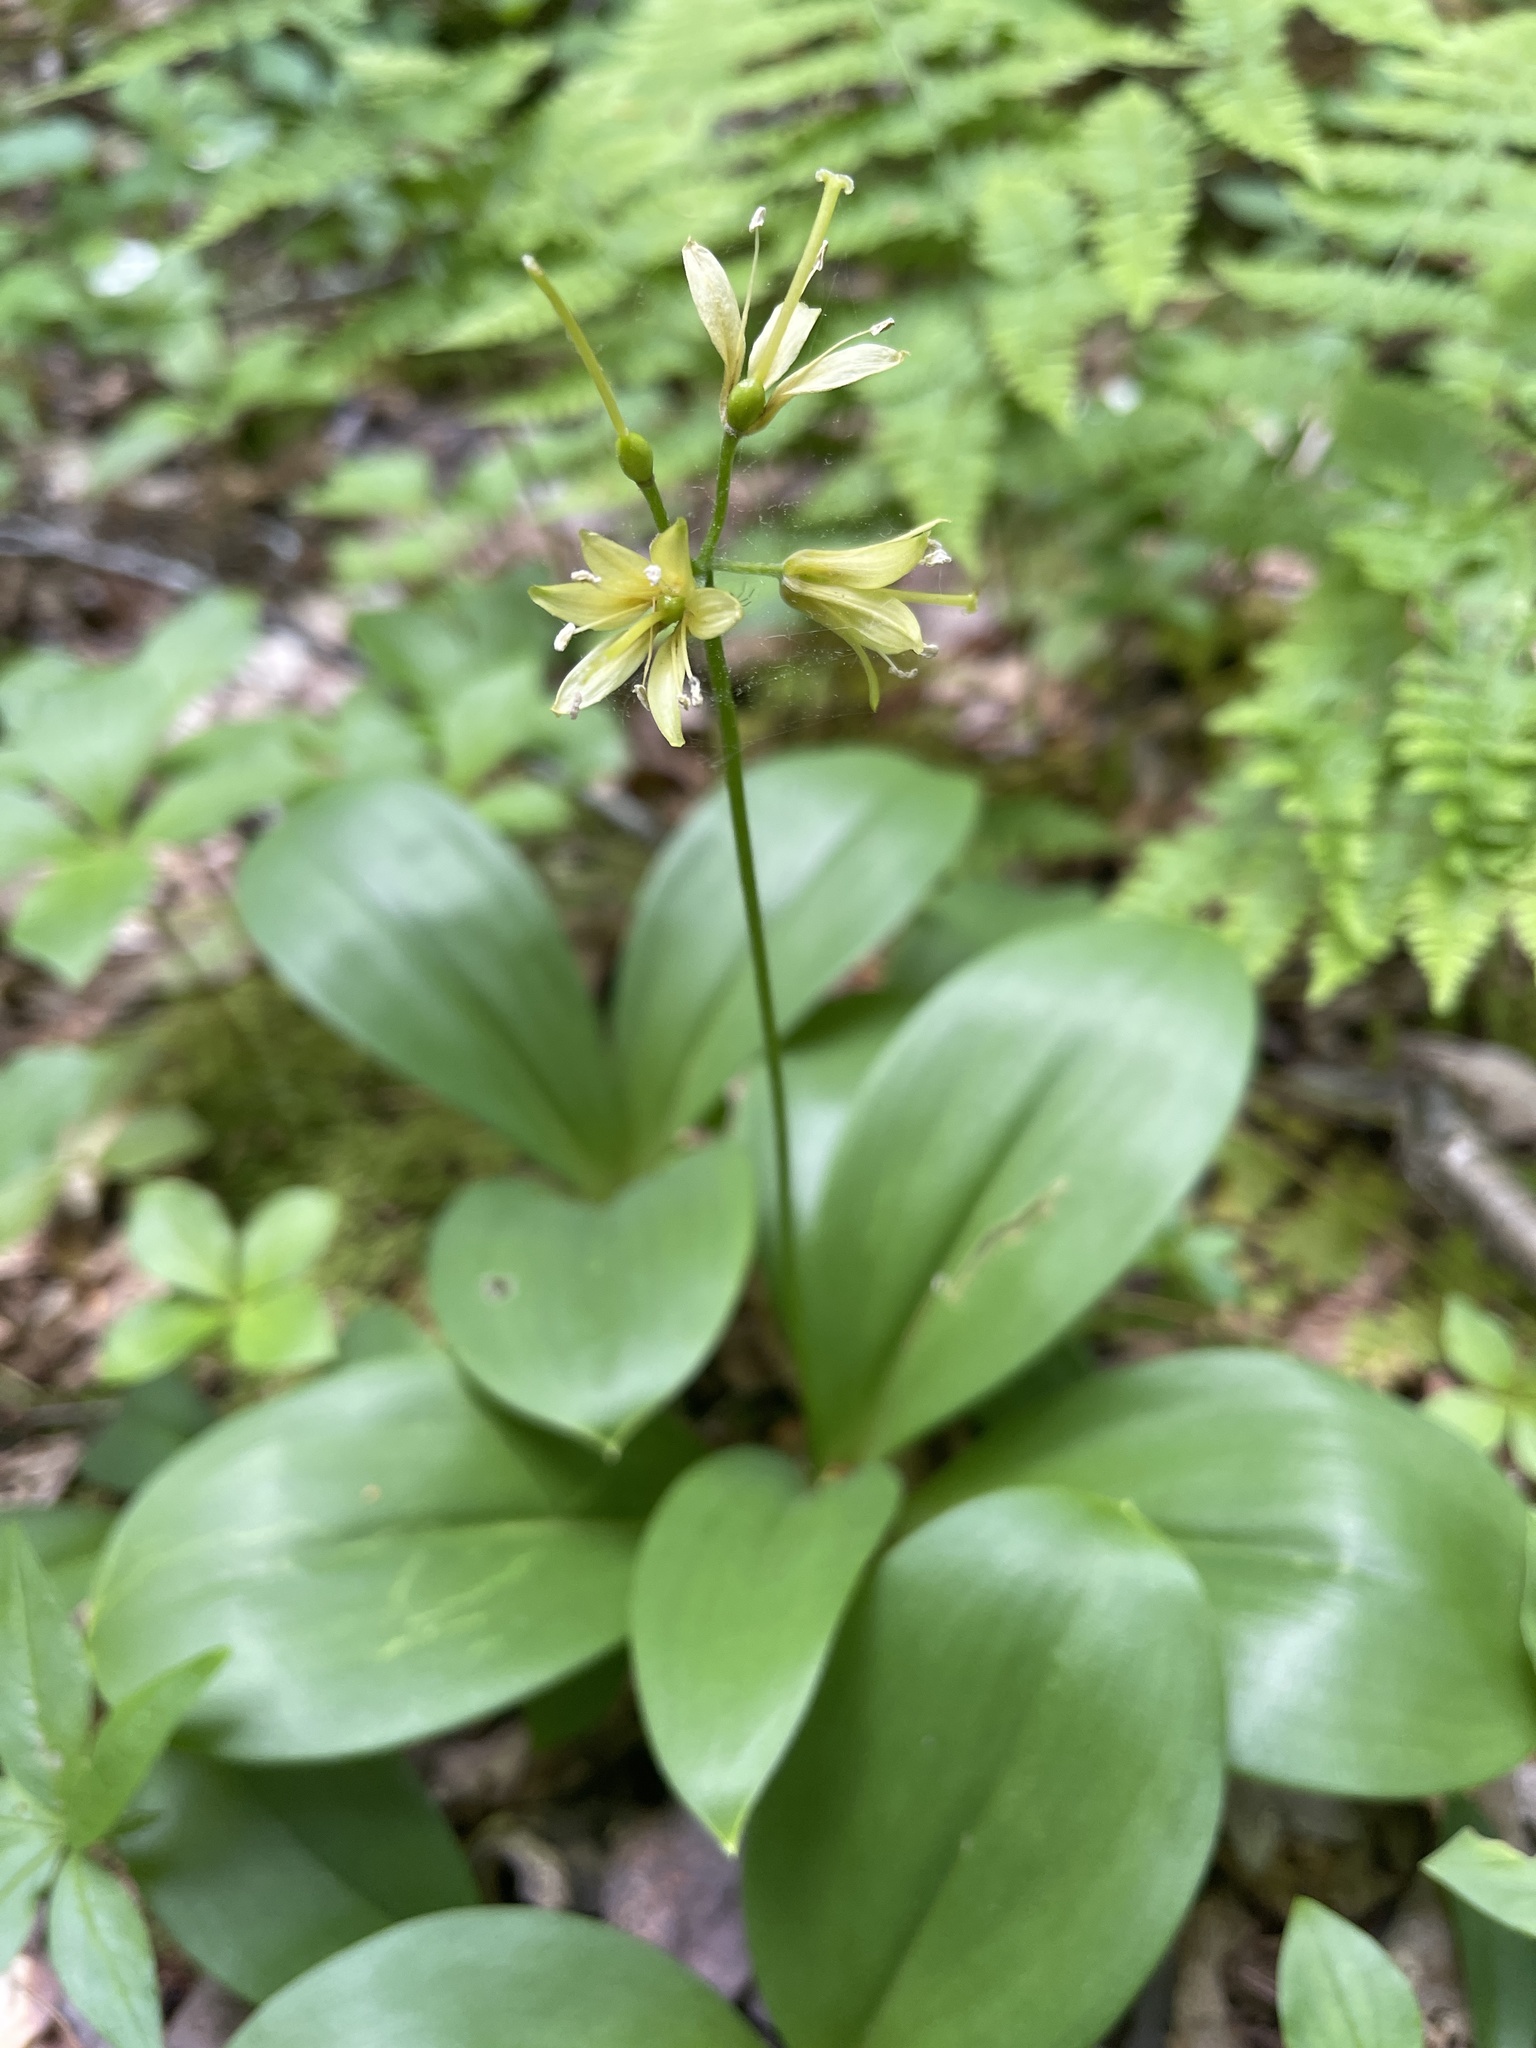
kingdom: Plantae
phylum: Tracheophyta
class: Liliopsida
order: Liliales
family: Liliaceae
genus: Clintonia
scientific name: Clintonia borealis
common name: Yellow clintonia
